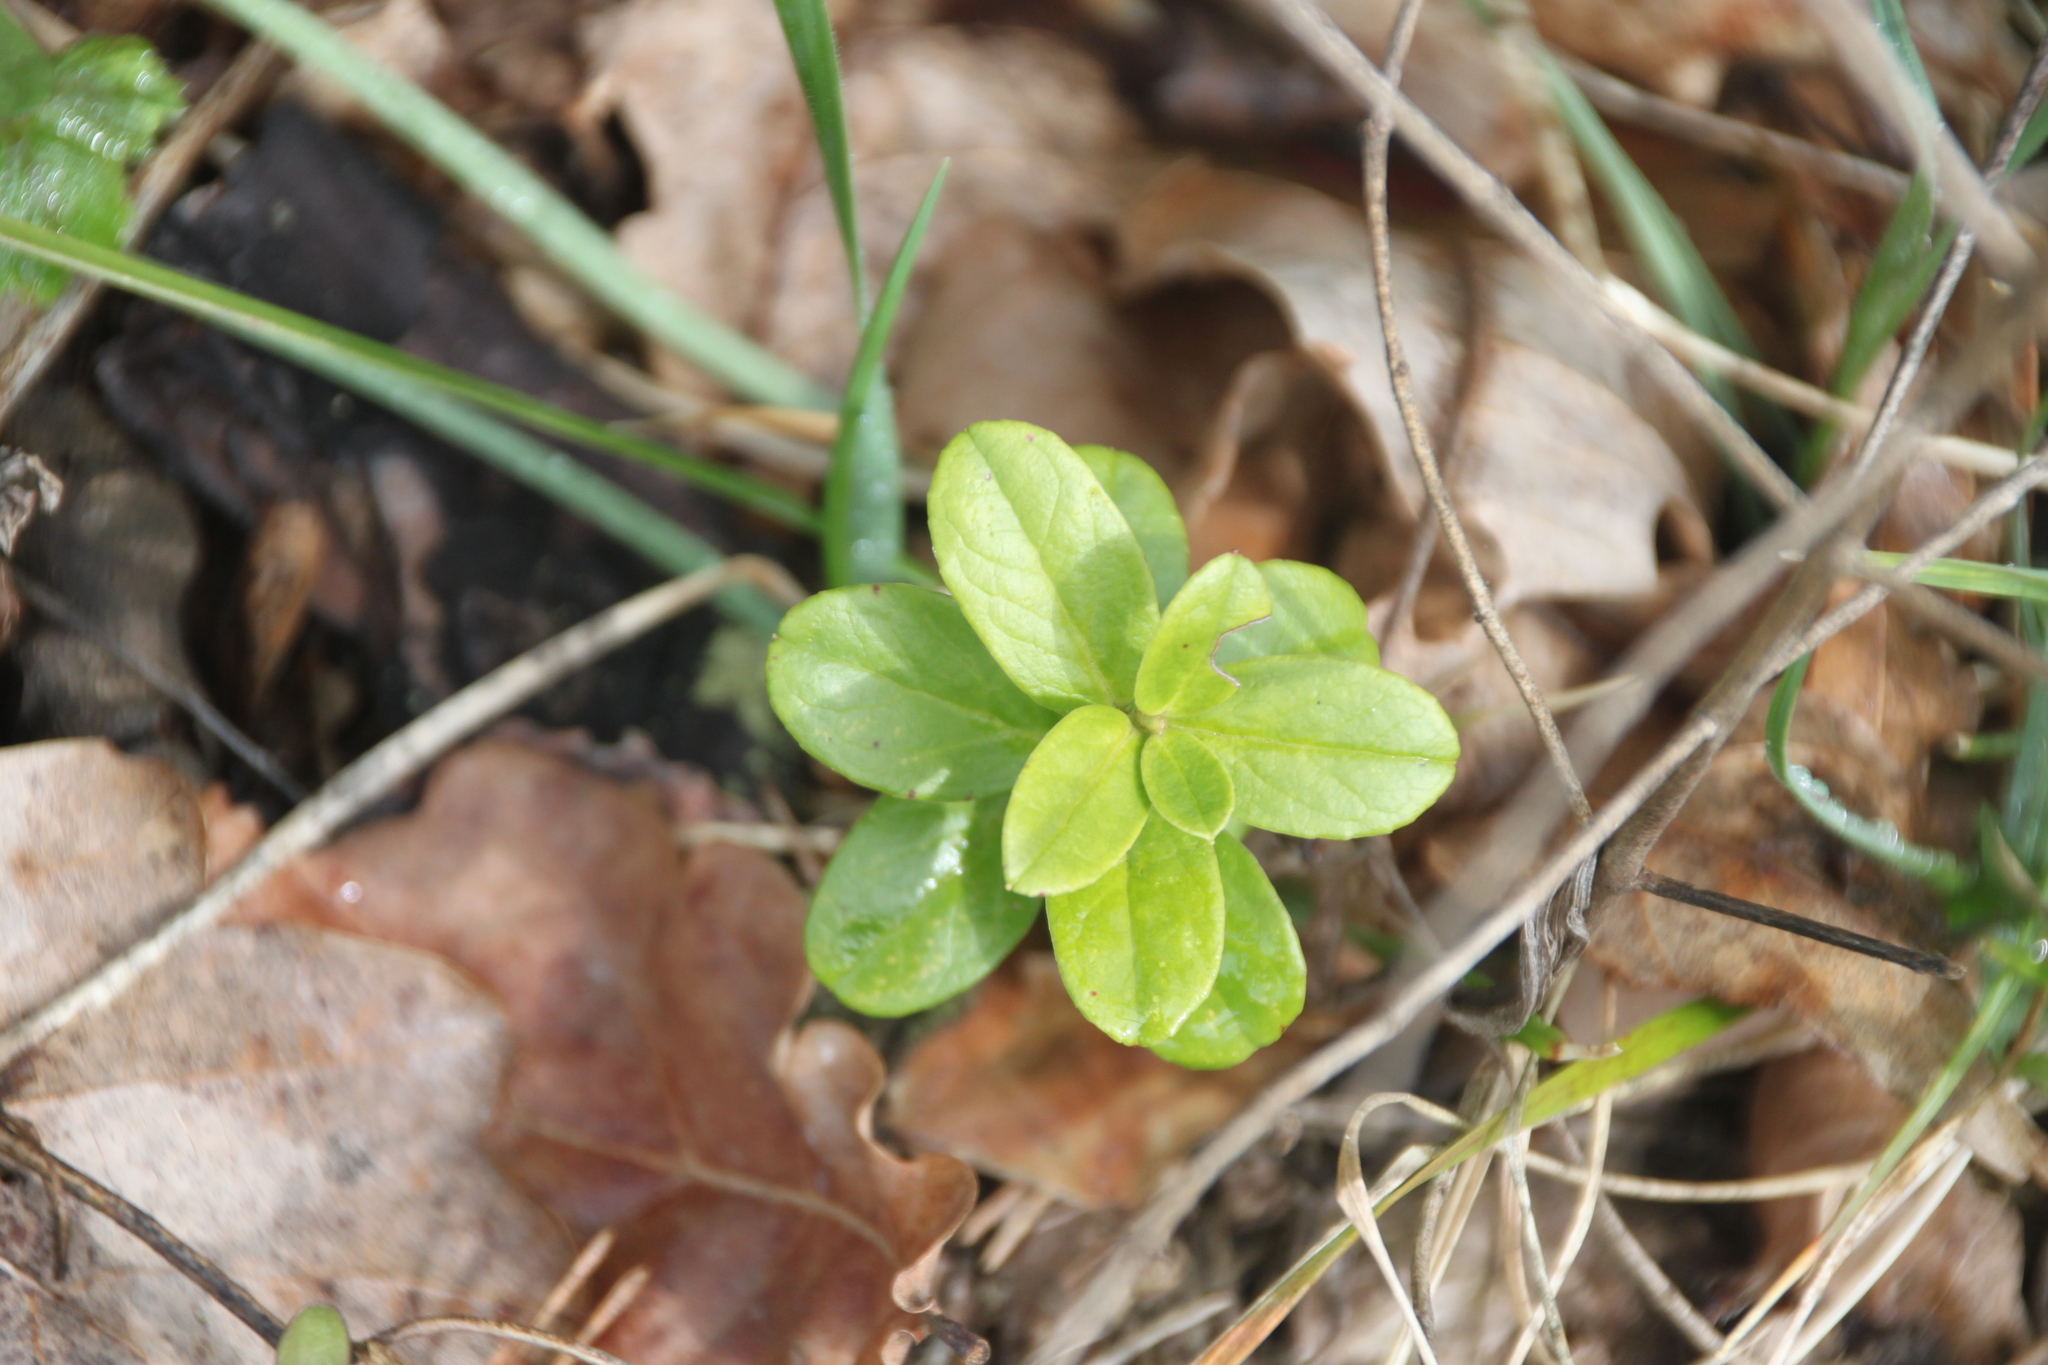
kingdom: Plantae
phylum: Tracheophyta
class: Magnoliopsida
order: Ericales
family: Ericaceae
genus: Vaccinium
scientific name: Vaccinium vitis-idaea
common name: Cowberry
